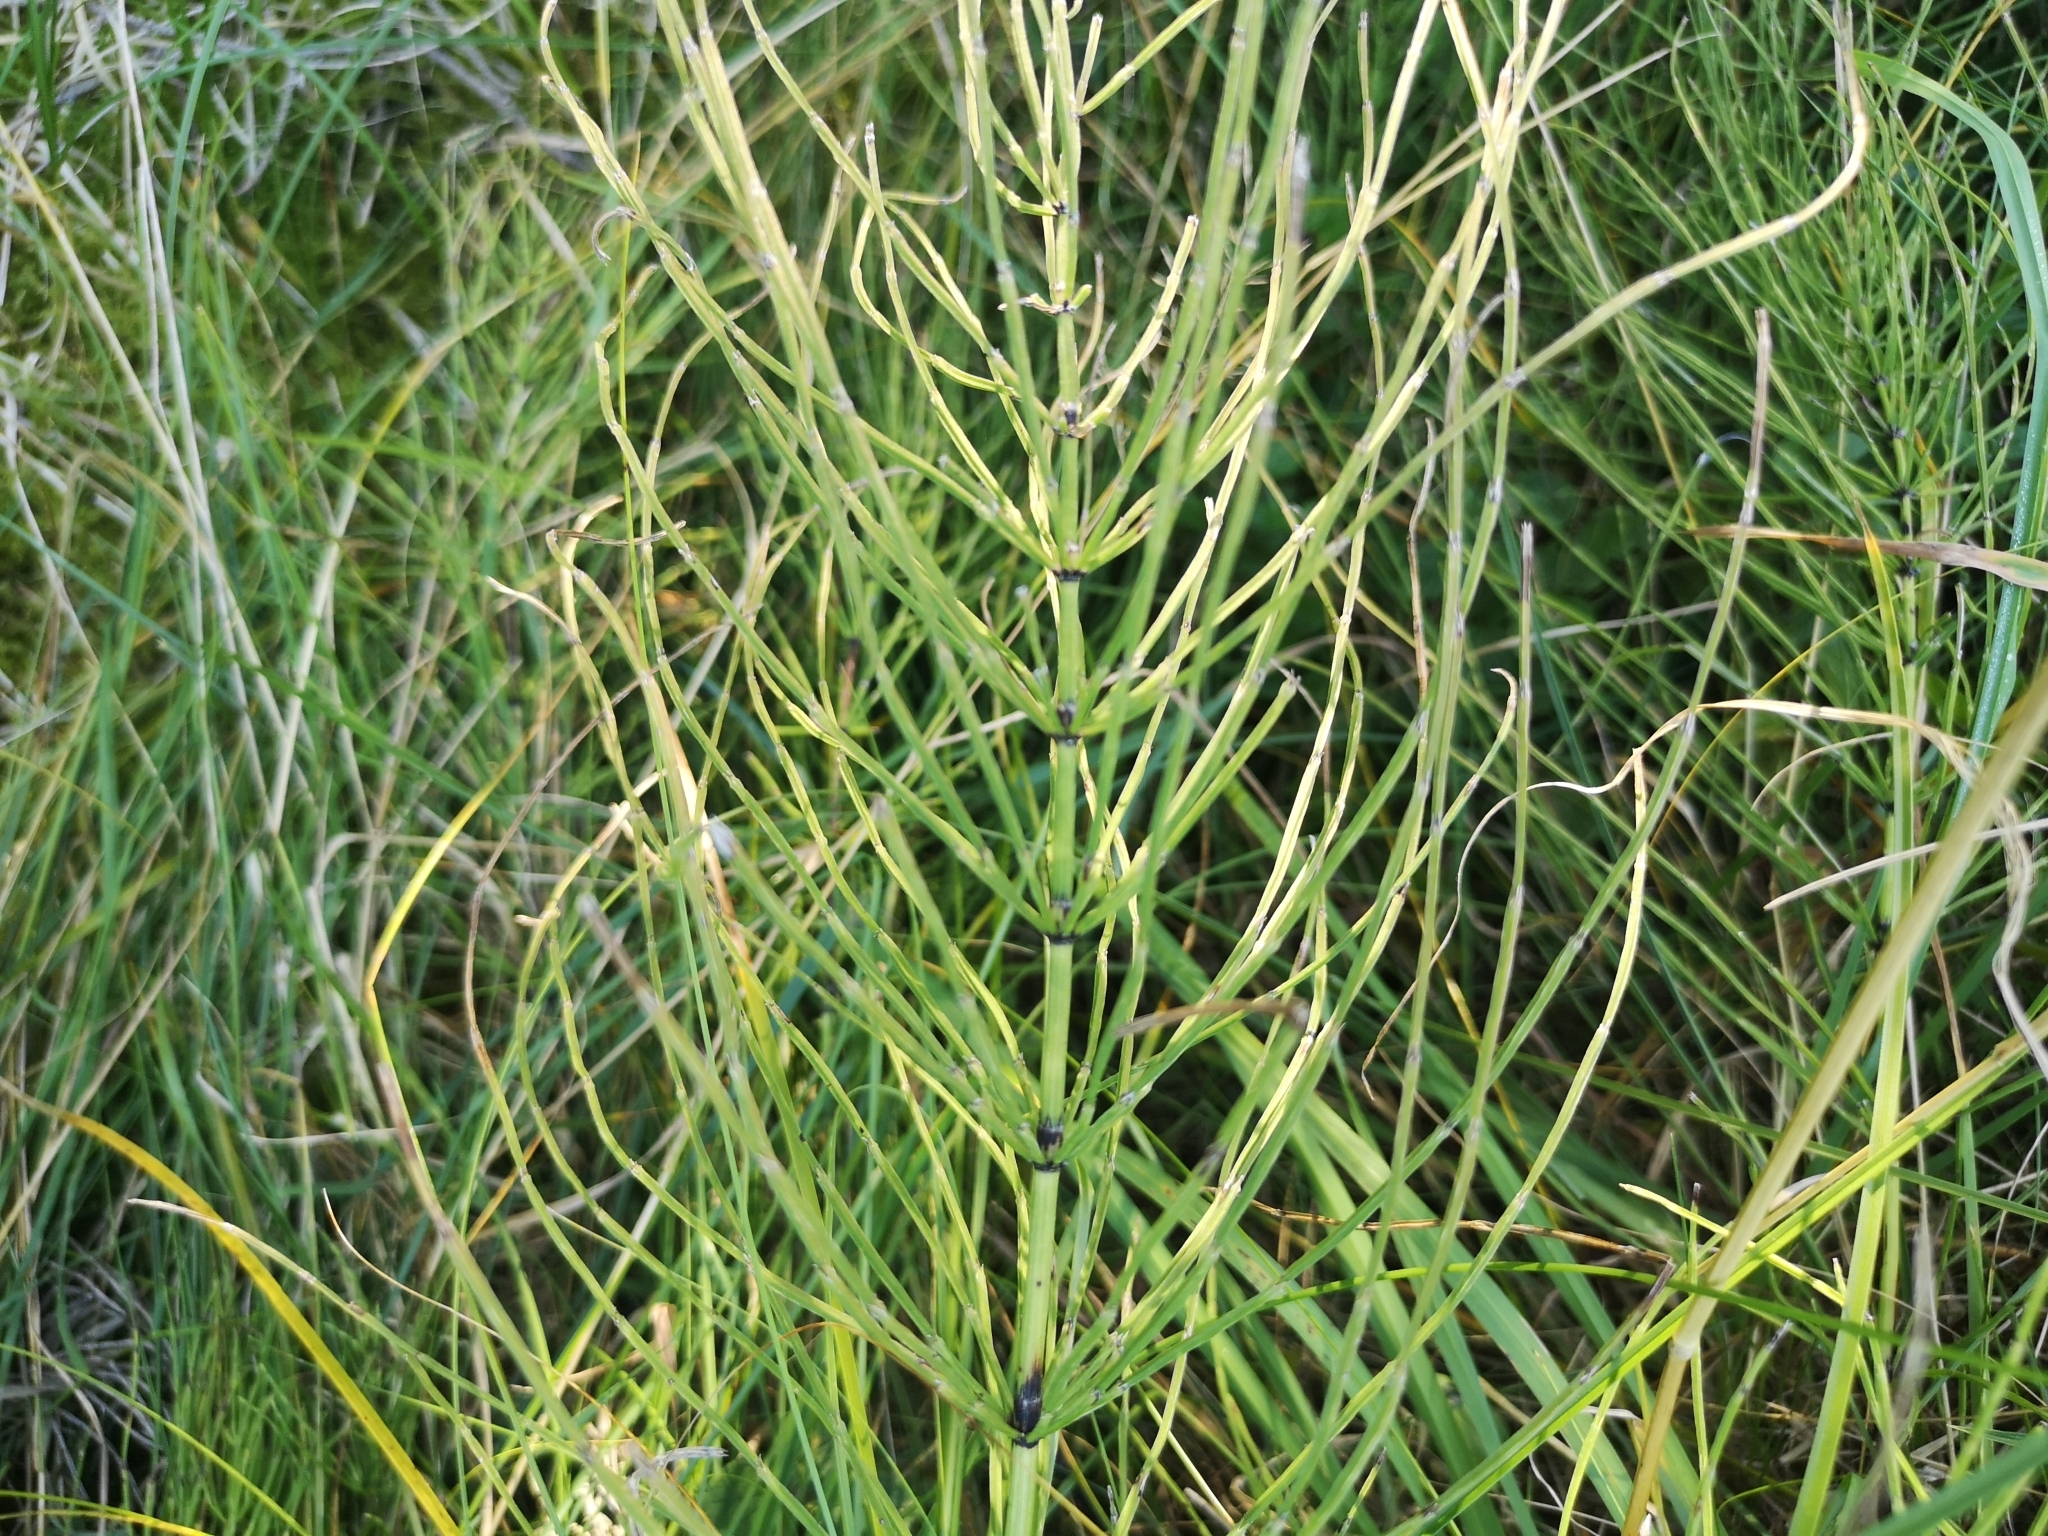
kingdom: Plantae
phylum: Tracheophyta
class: Polypodiopsida
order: Equisetales
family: Equisetaceae
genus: Equisetum
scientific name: Equisetum arvense
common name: Field horsetail
